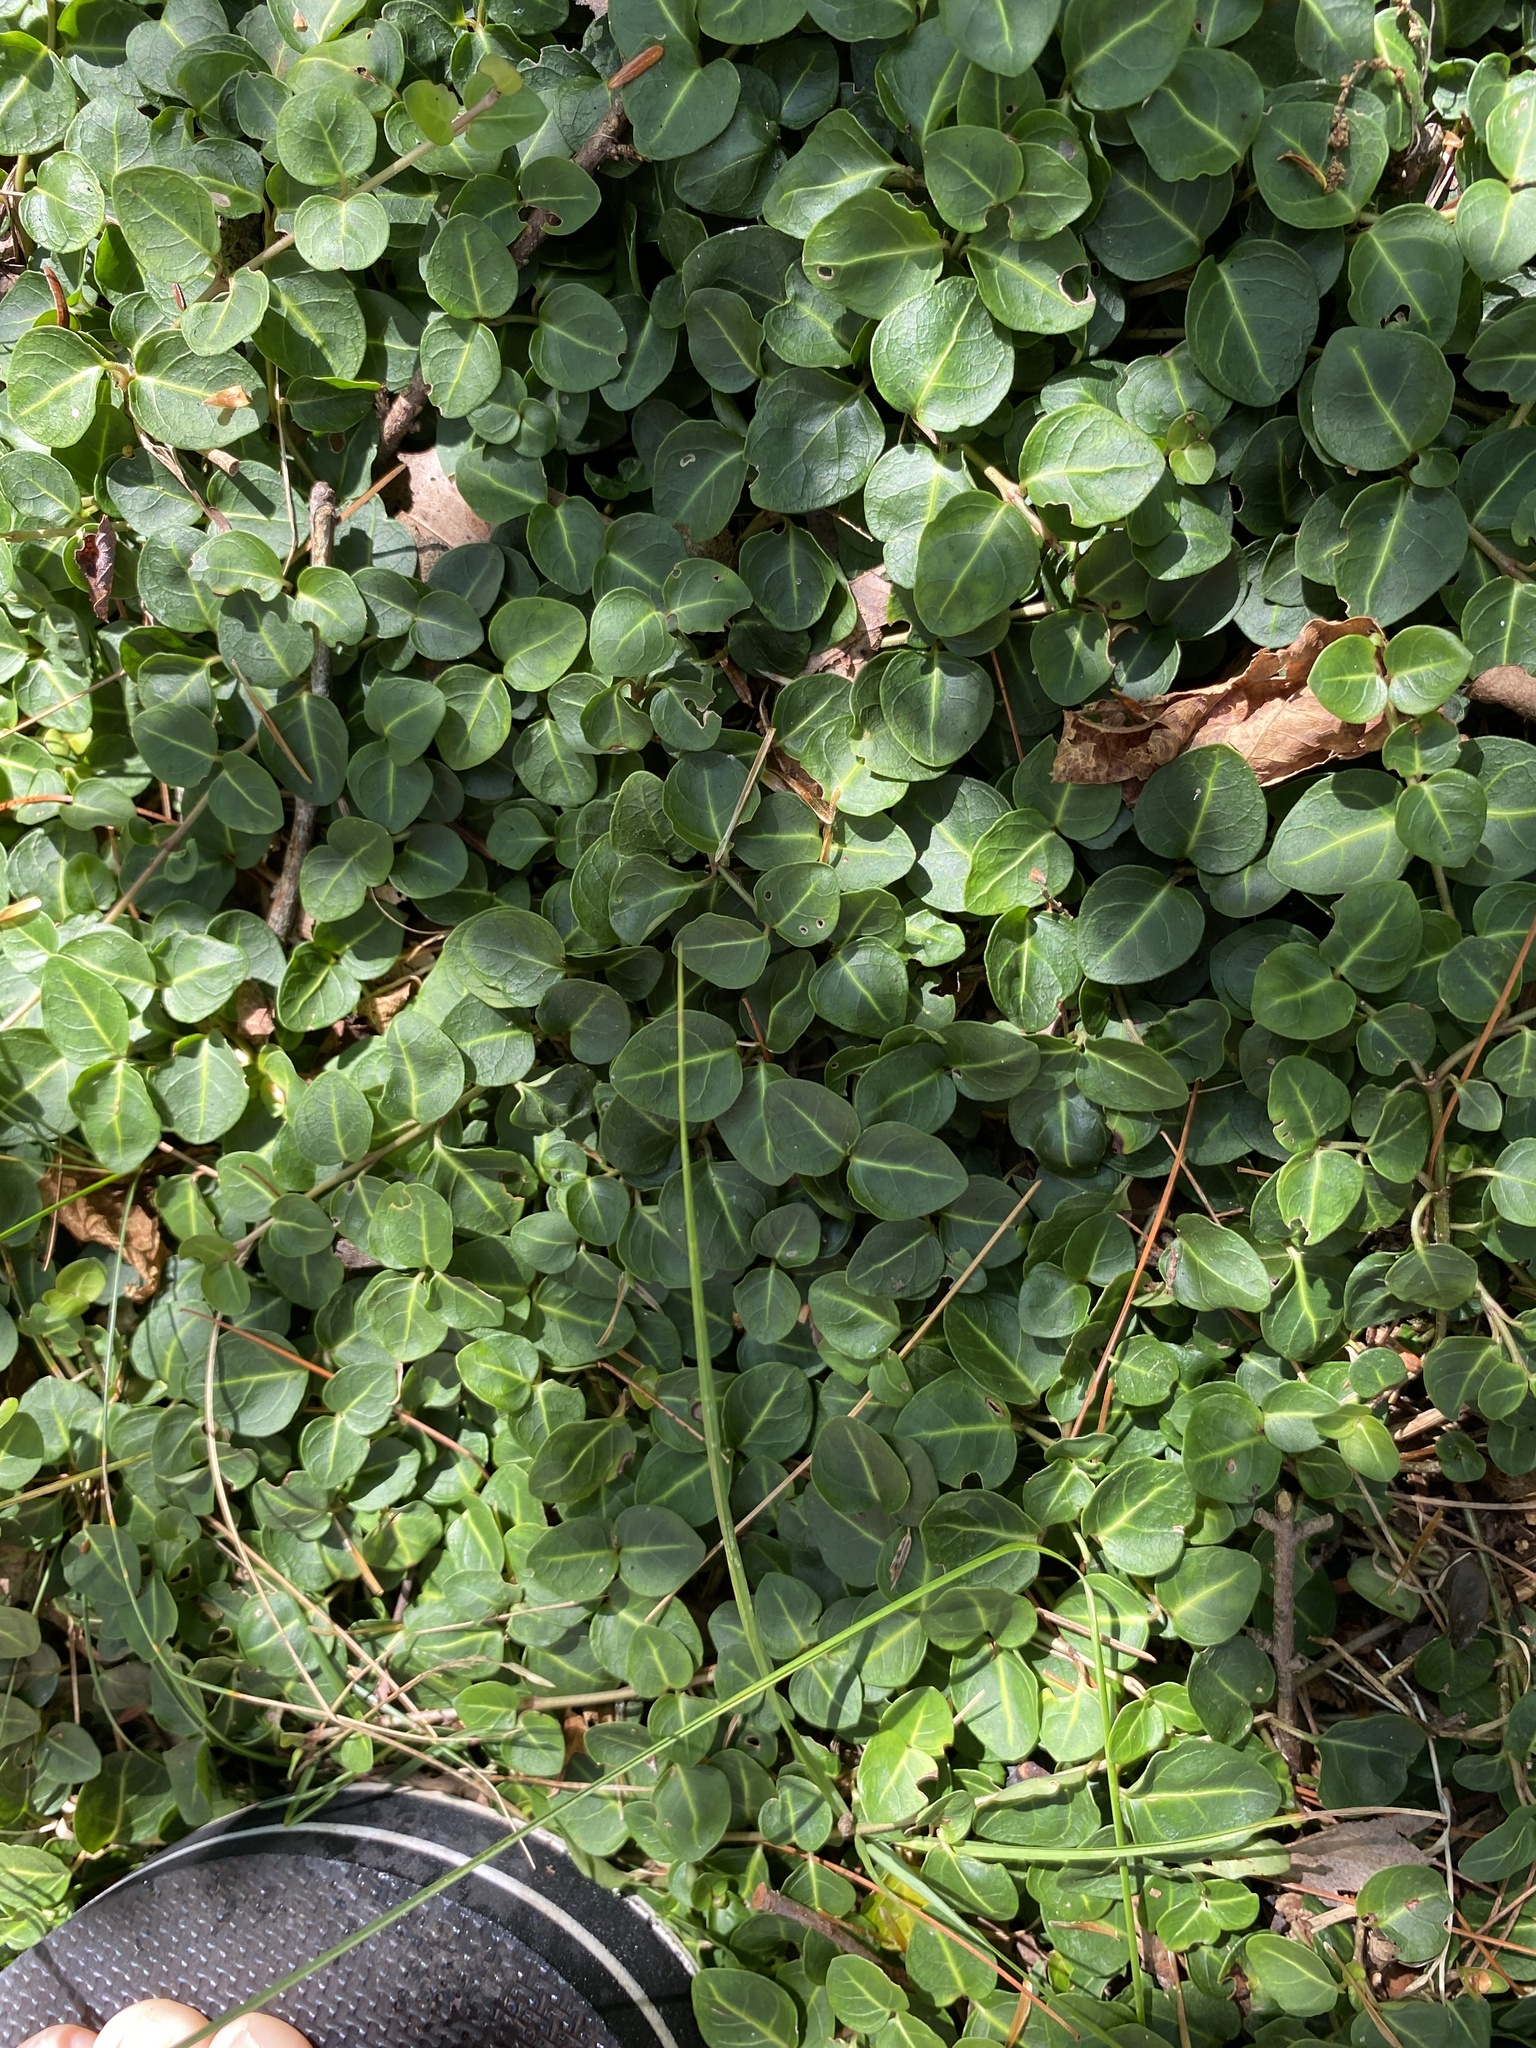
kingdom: Plantae
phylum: Tracheophyta
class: Magnoliopsida
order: Gentianales
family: Rubiaceae
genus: Mitchella
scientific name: Mitchella repens
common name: Partridge-berry
